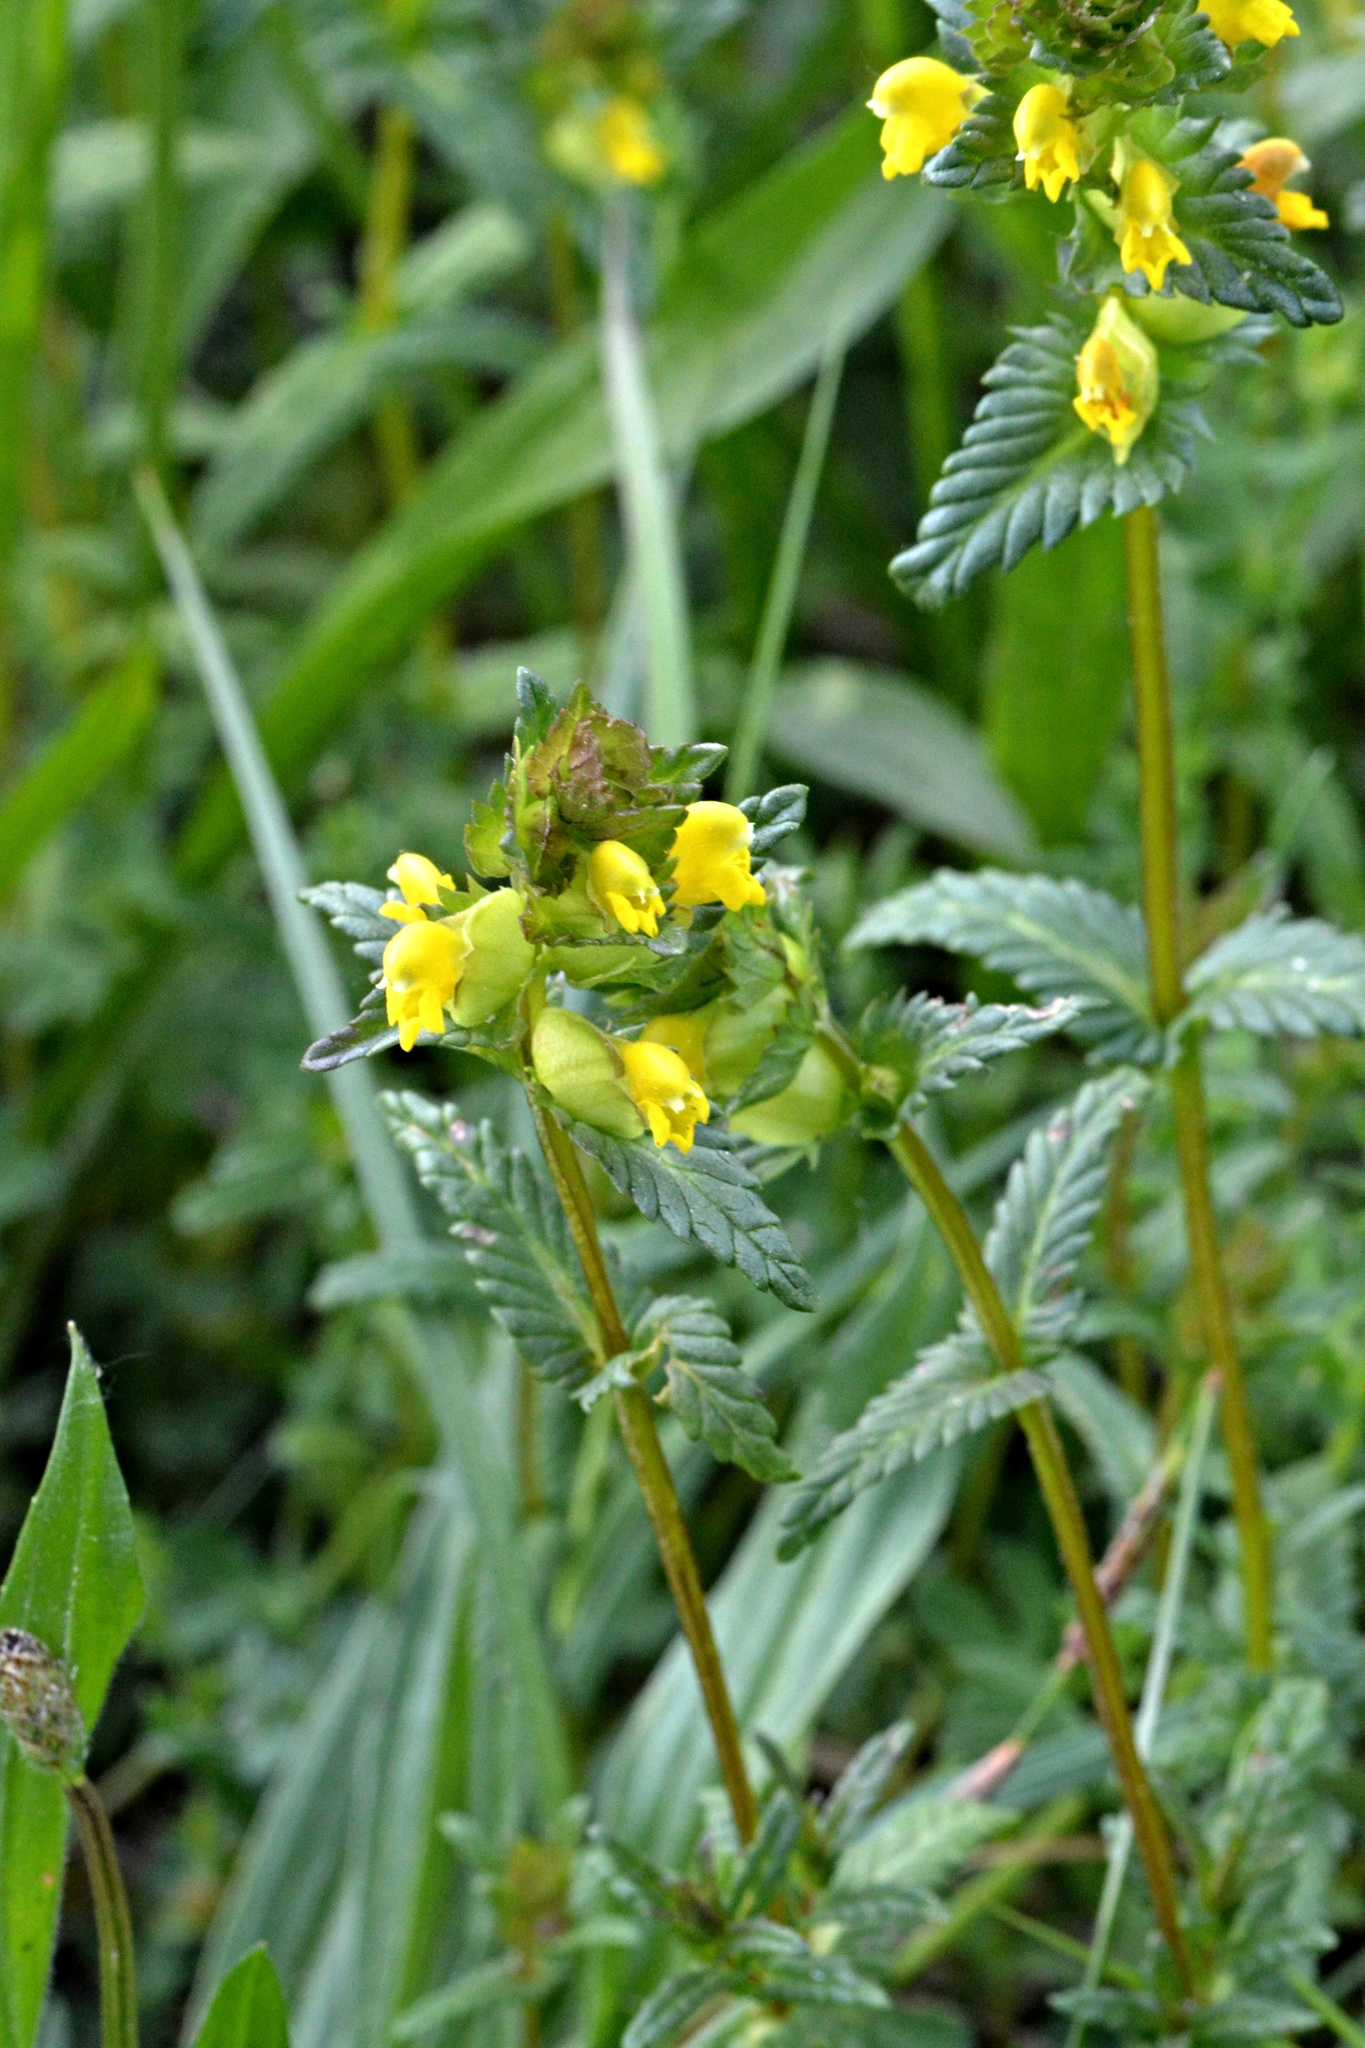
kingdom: Plantae
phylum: Tracheophyta
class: Magnoliopsida
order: Lamiales
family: Orobanchaceae
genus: Rhinanthus
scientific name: Rhinanthus minor
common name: Yellow-rattle
